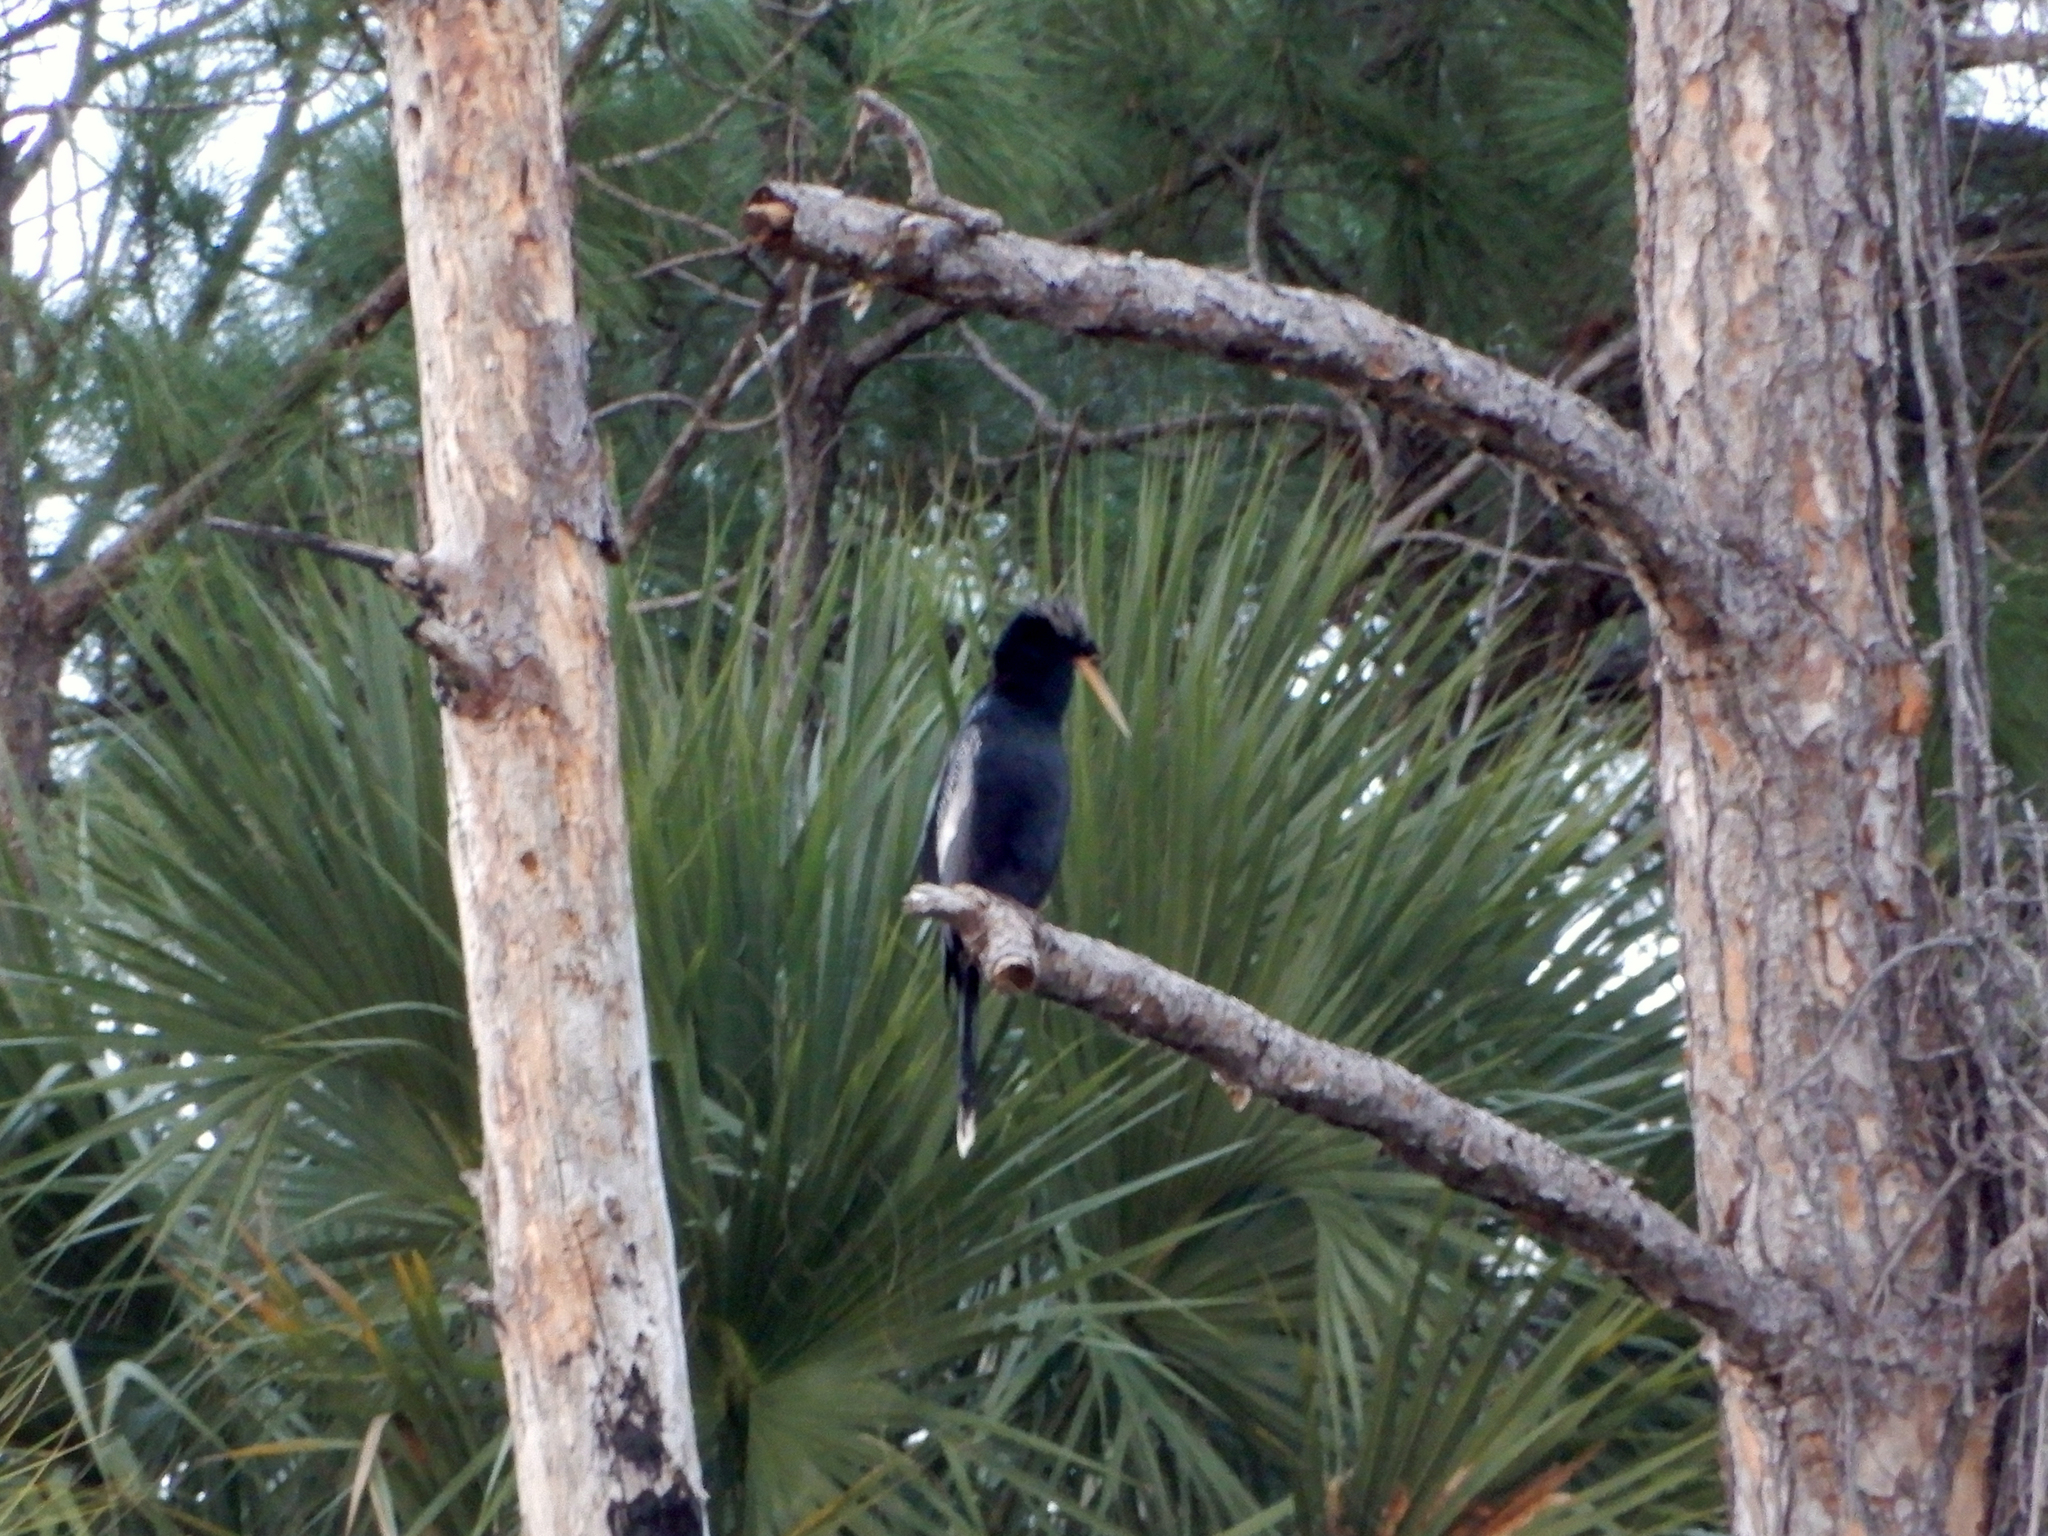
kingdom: Animalia
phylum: Chordata
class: Aves
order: Suliformes
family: Anhingidae
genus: Anhinga
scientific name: Anhinga anhinga
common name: Anhinga
